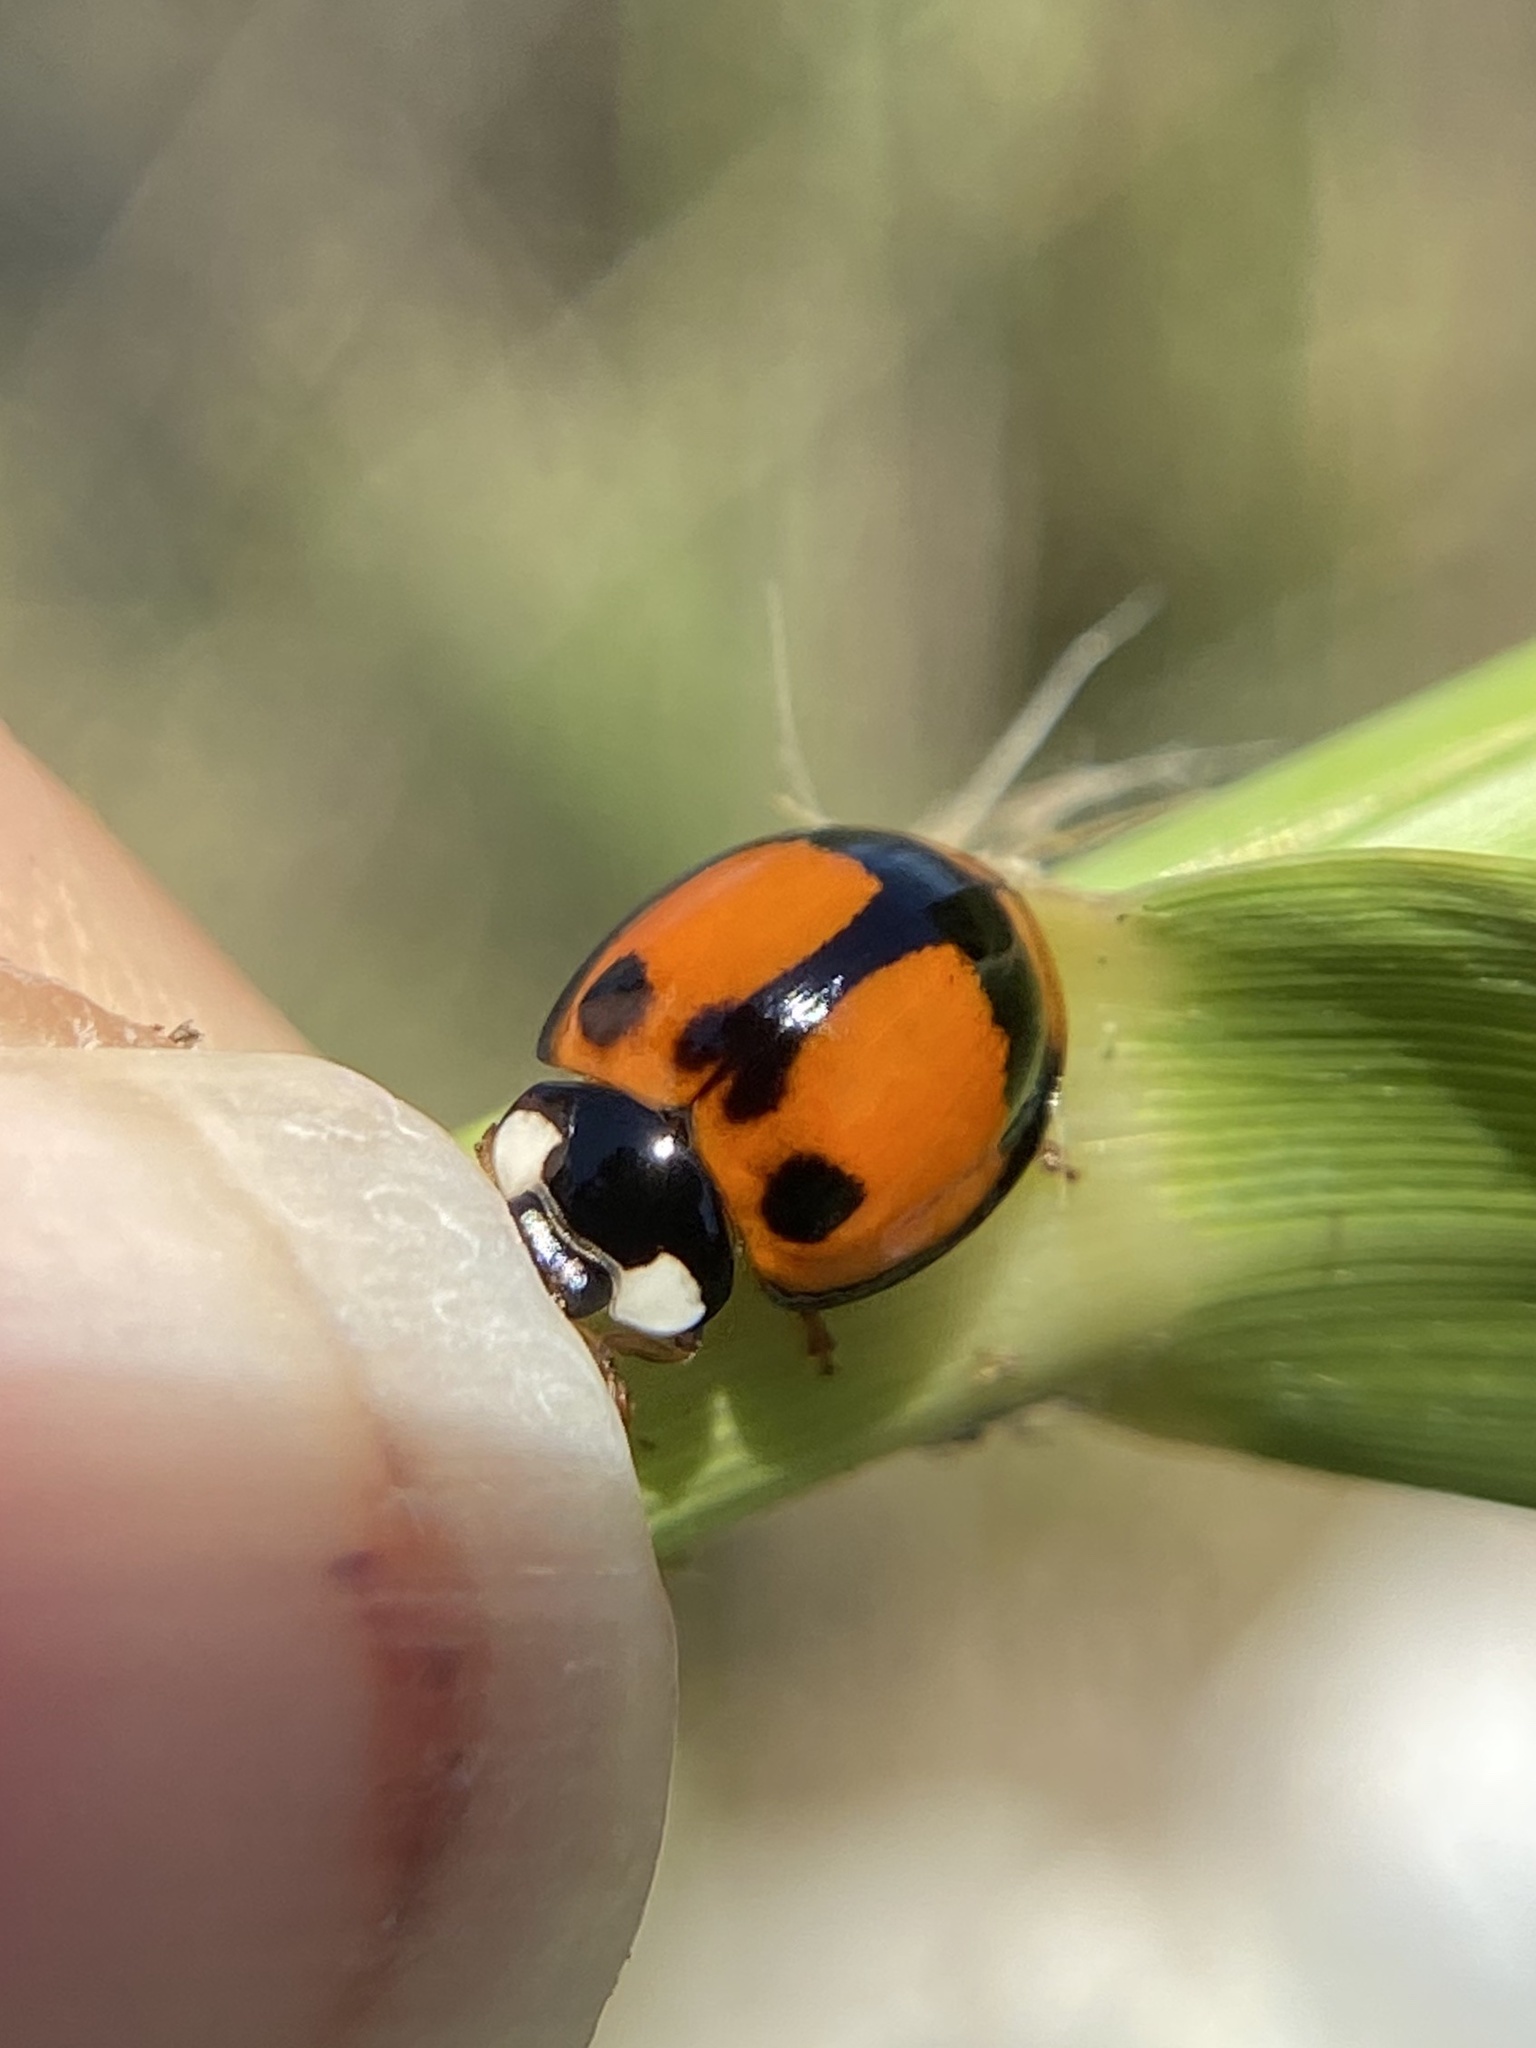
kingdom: Animalia
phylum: Arthropoda
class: Insecta
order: Coleoptera
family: Coccinellidae
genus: Coelophora
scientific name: Coelophora inaequalis
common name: Common australian lady beetle
